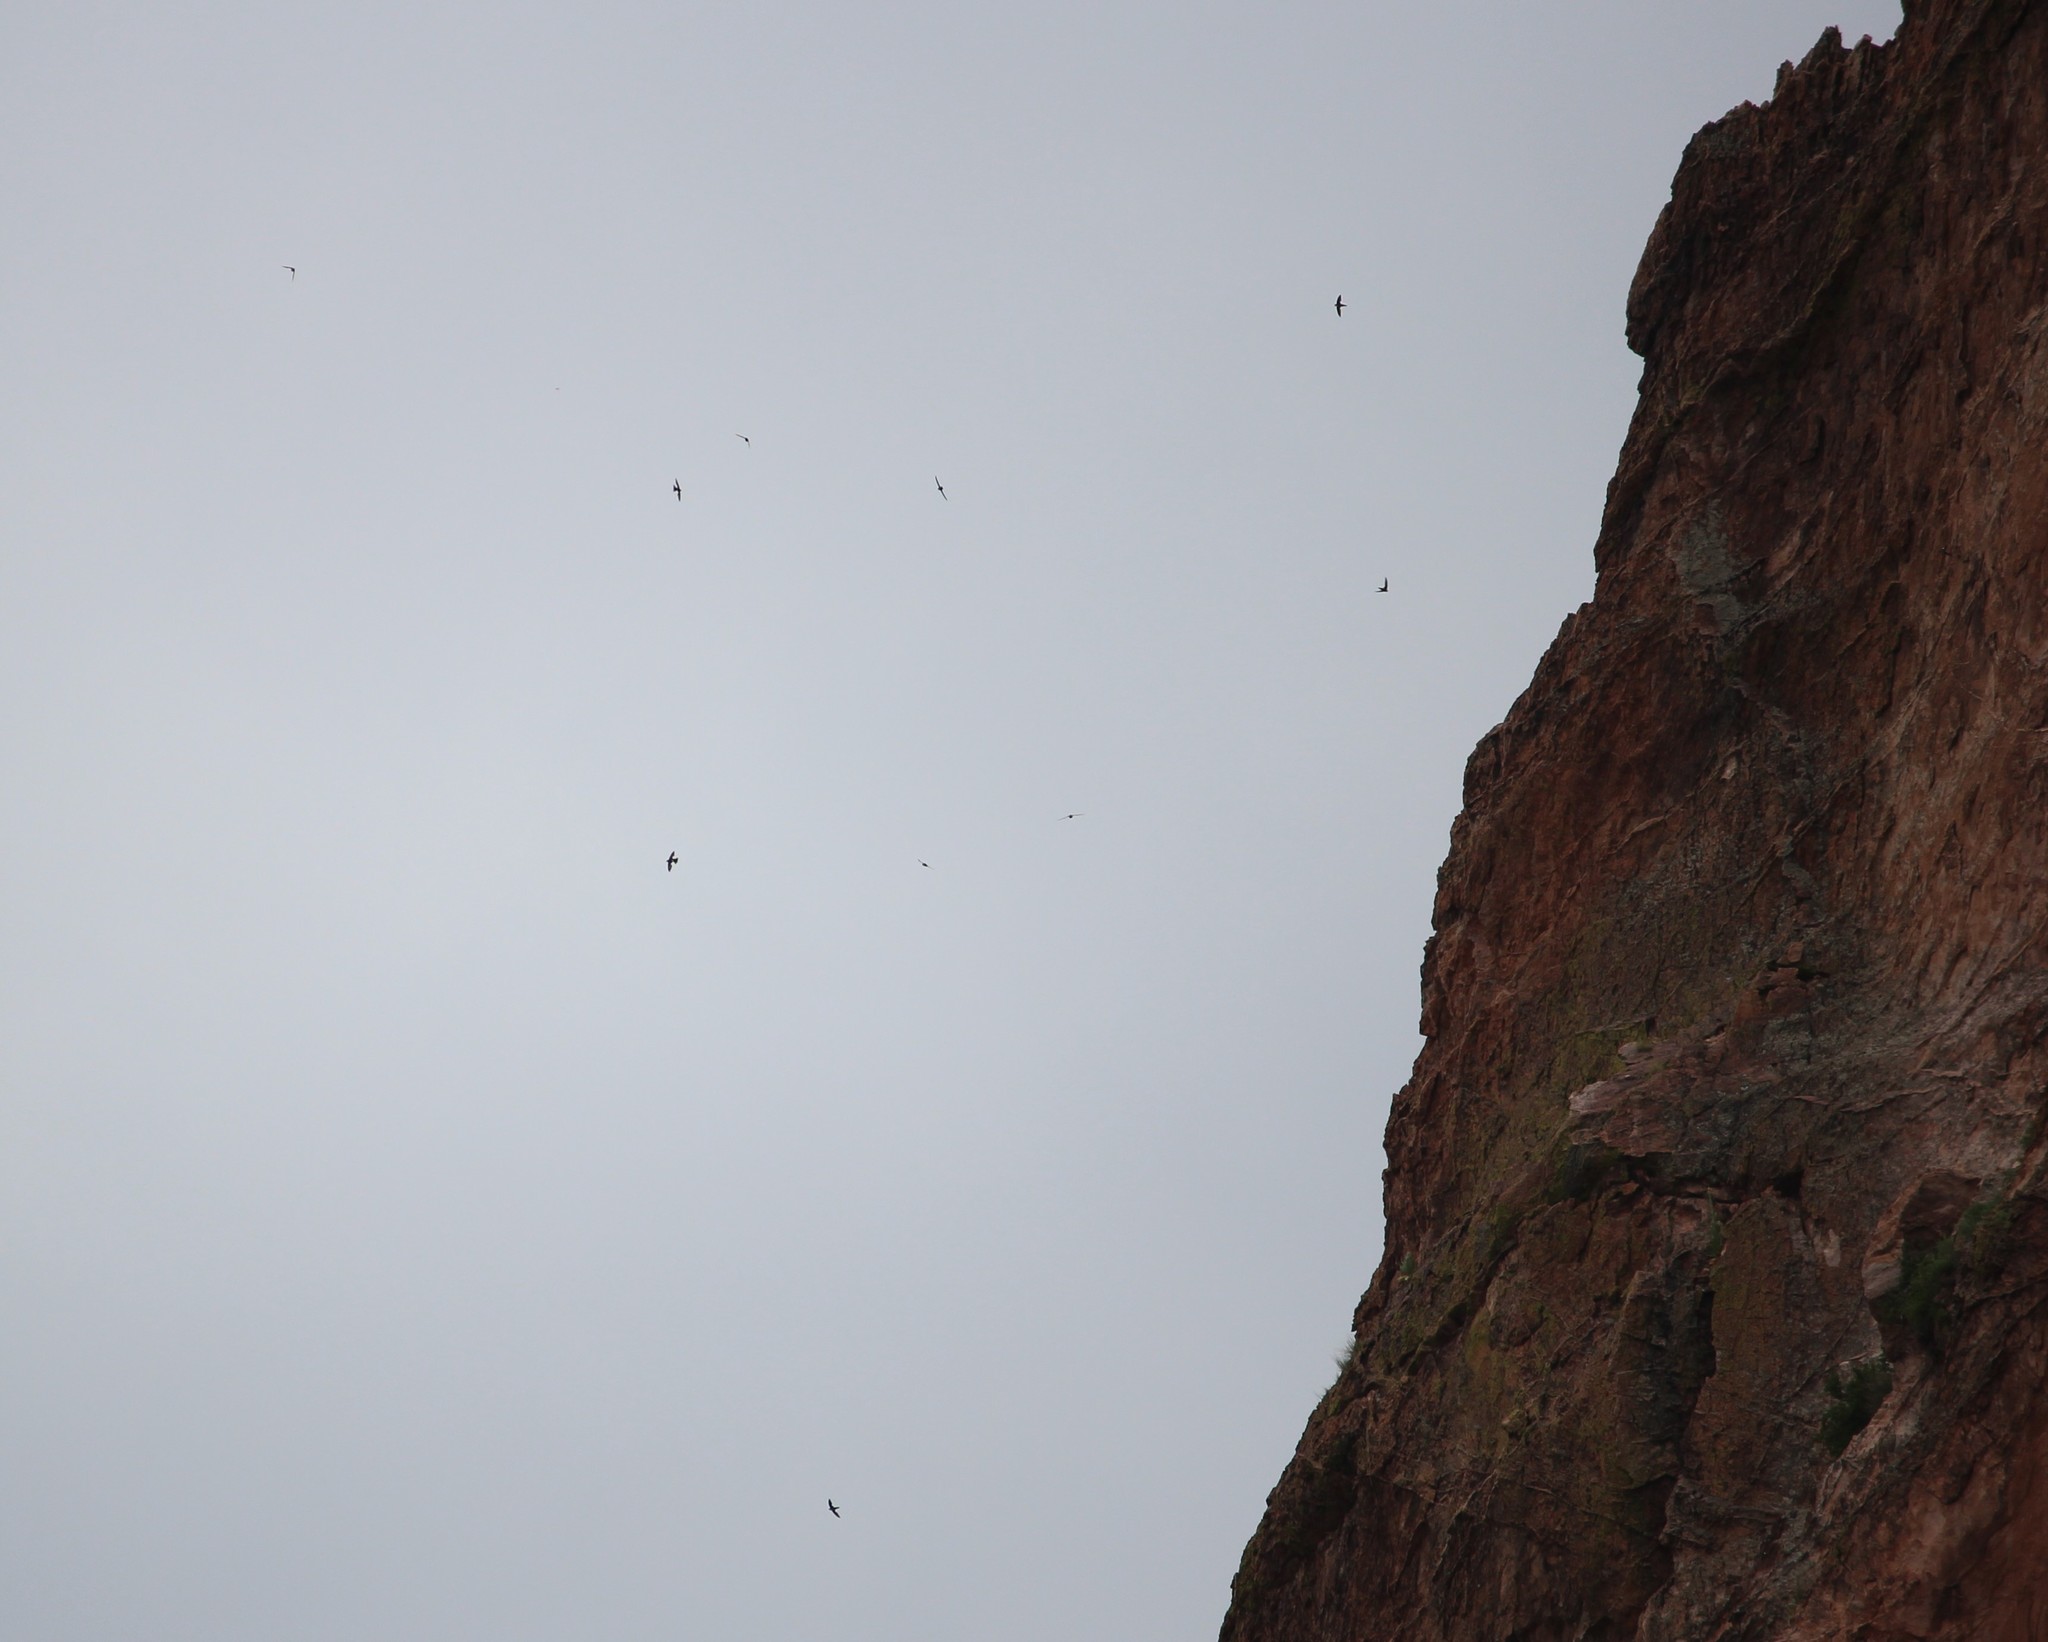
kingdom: Animalia
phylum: Chordata
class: Aves
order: Apodiformes
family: Apodidae
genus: Aeronautes
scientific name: Aeronautes saxatalis
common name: White-throated swift
